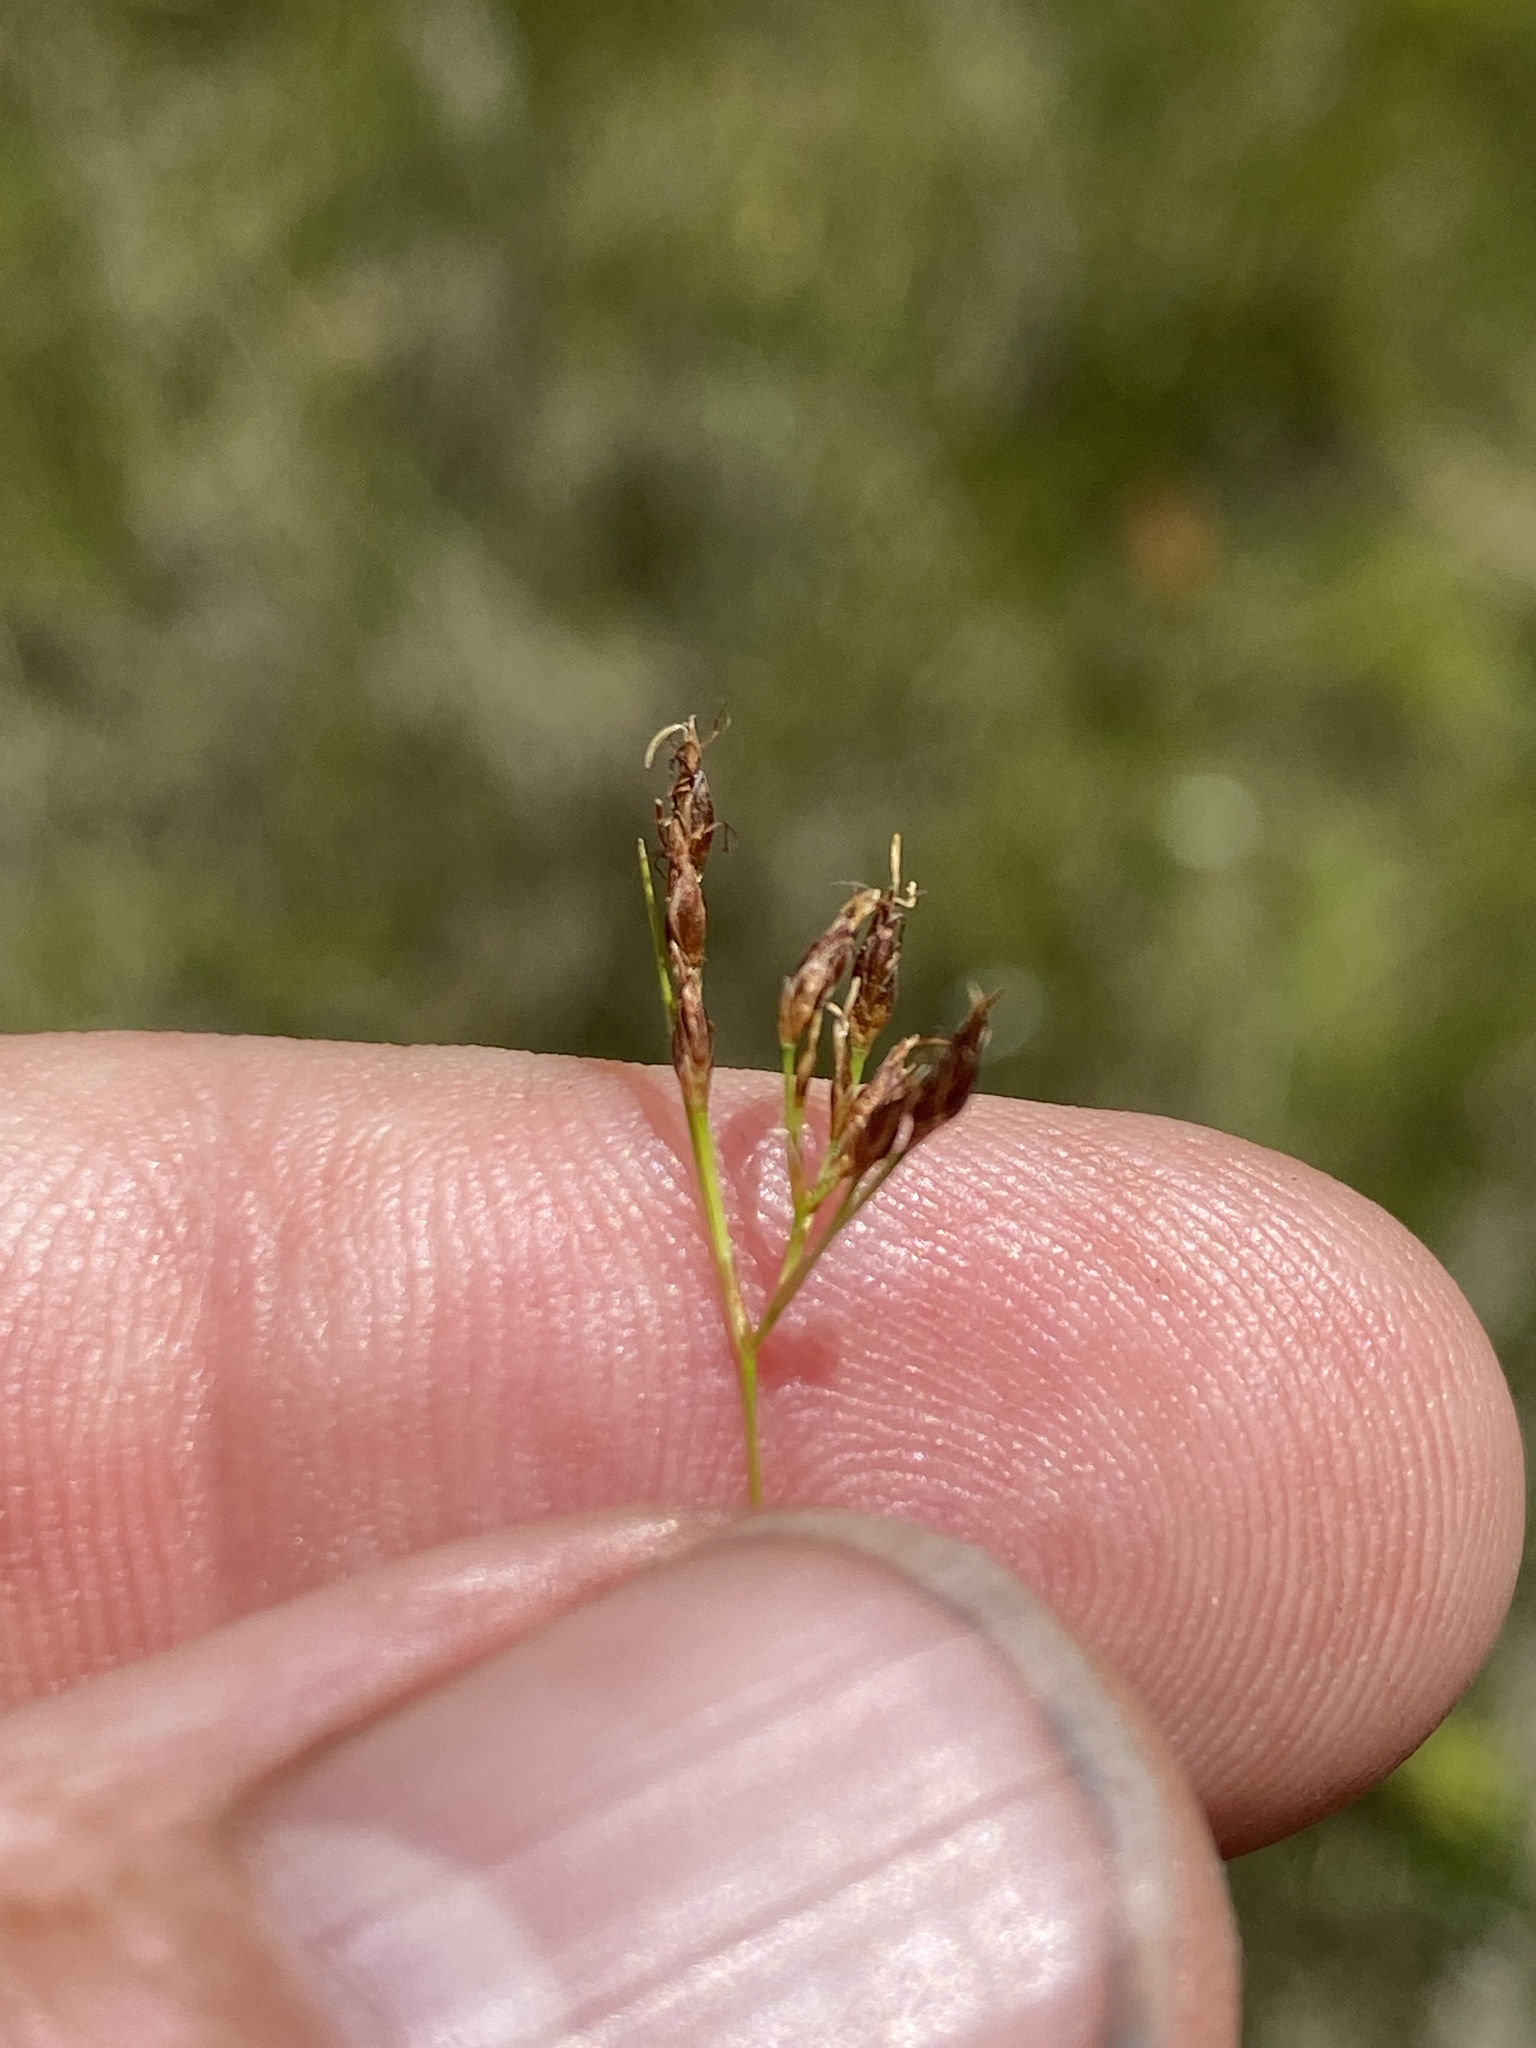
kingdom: Plantae
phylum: Tracheophyta
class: Liliopsida
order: Poales
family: Cyperaceae
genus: Rhynchospora
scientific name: Rhynchospora divergens
